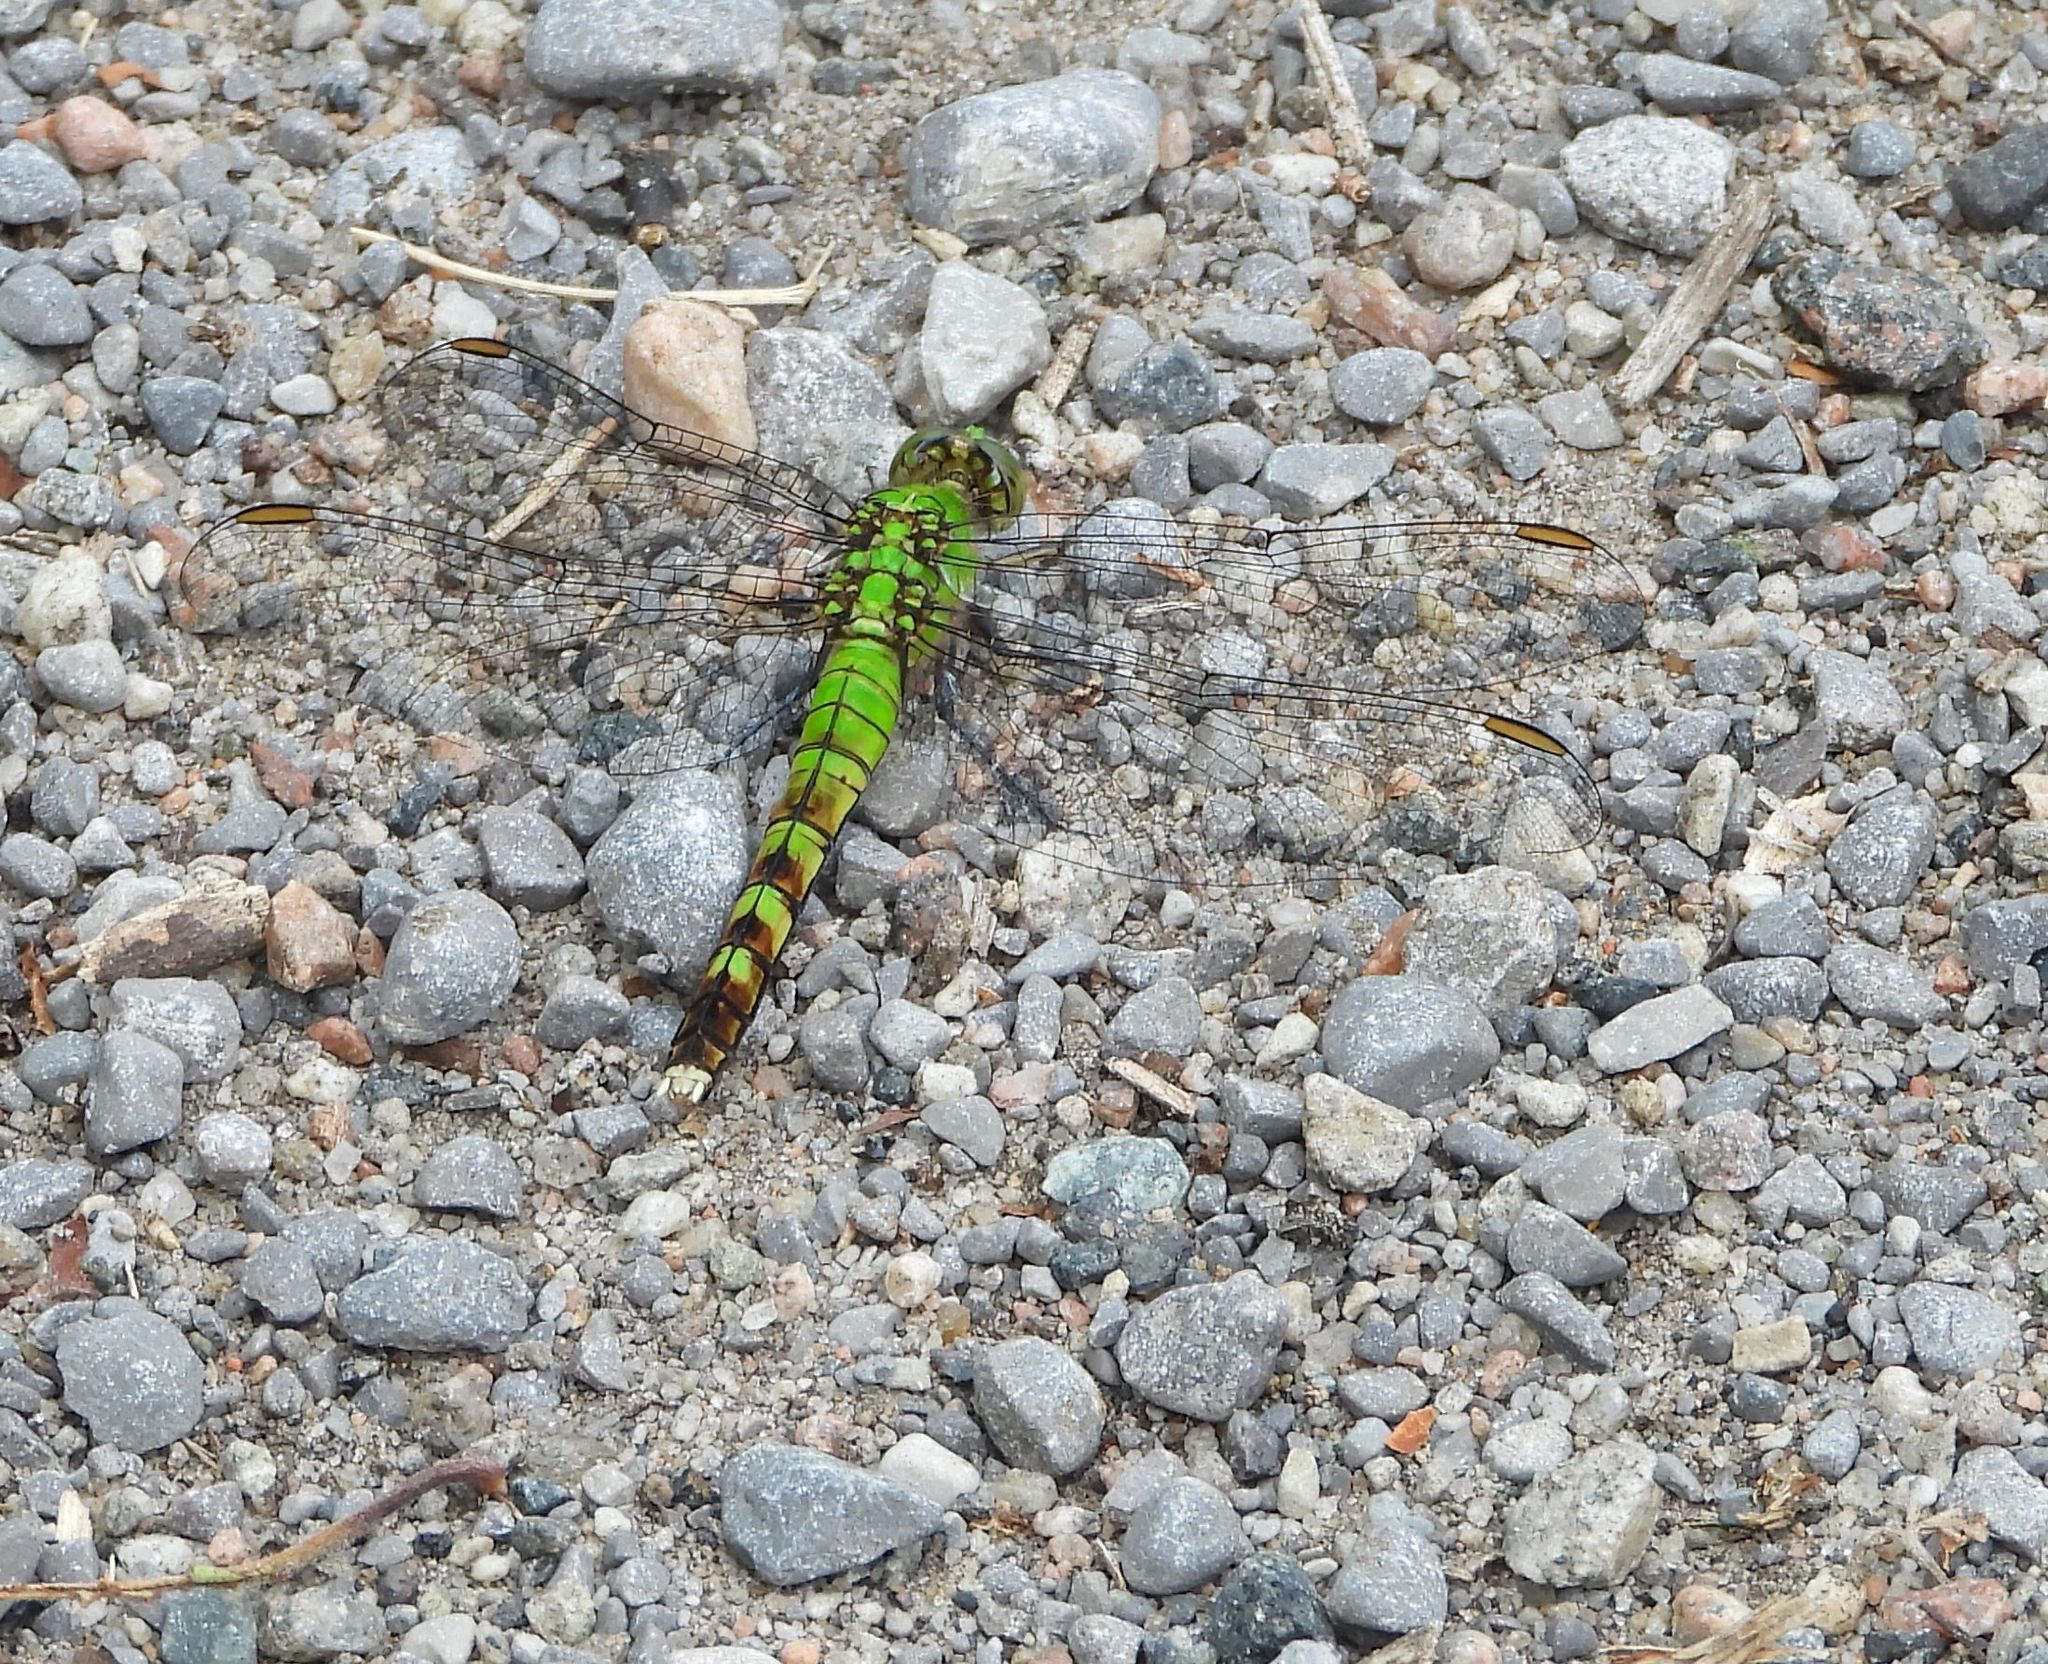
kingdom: Animalia
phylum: Arthropoda
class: Insecta
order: Odonata
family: Libellulidae
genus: Erythemis
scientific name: Erythemis simplicicollis
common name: Eastern pondhawk
